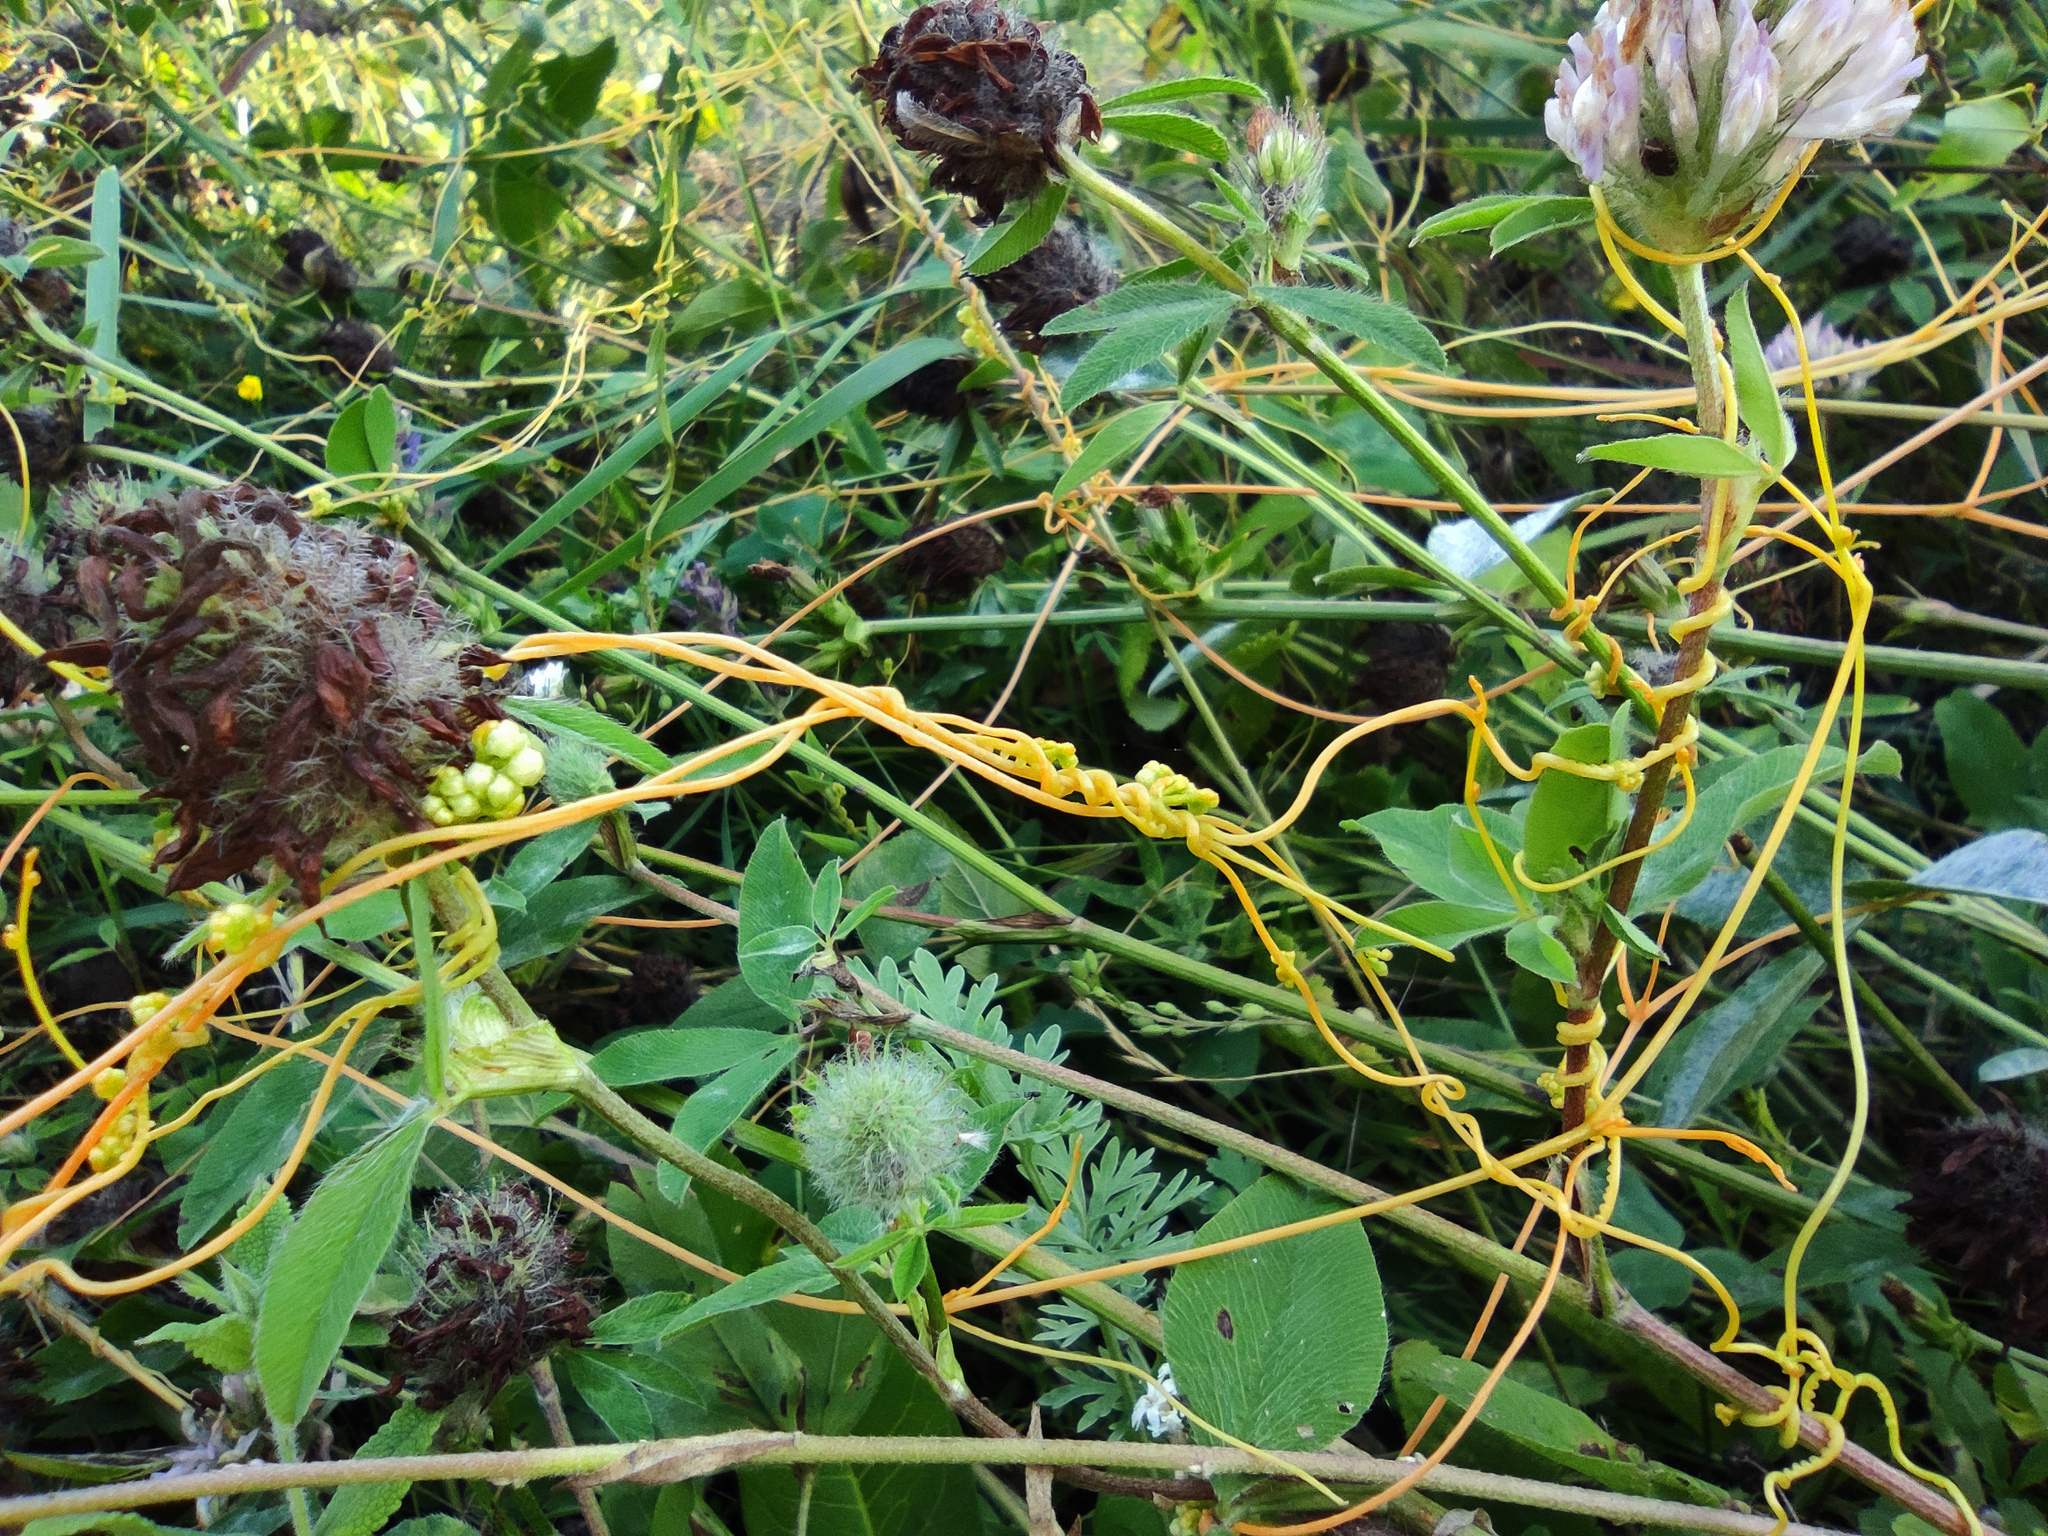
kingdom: Plantae
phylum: Tracheophyta
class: Magnoliopsida
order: Solanales
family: Convolvulaceae
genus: Cuscuta
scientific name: Cuscuta campestris
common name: Yellow dodder
